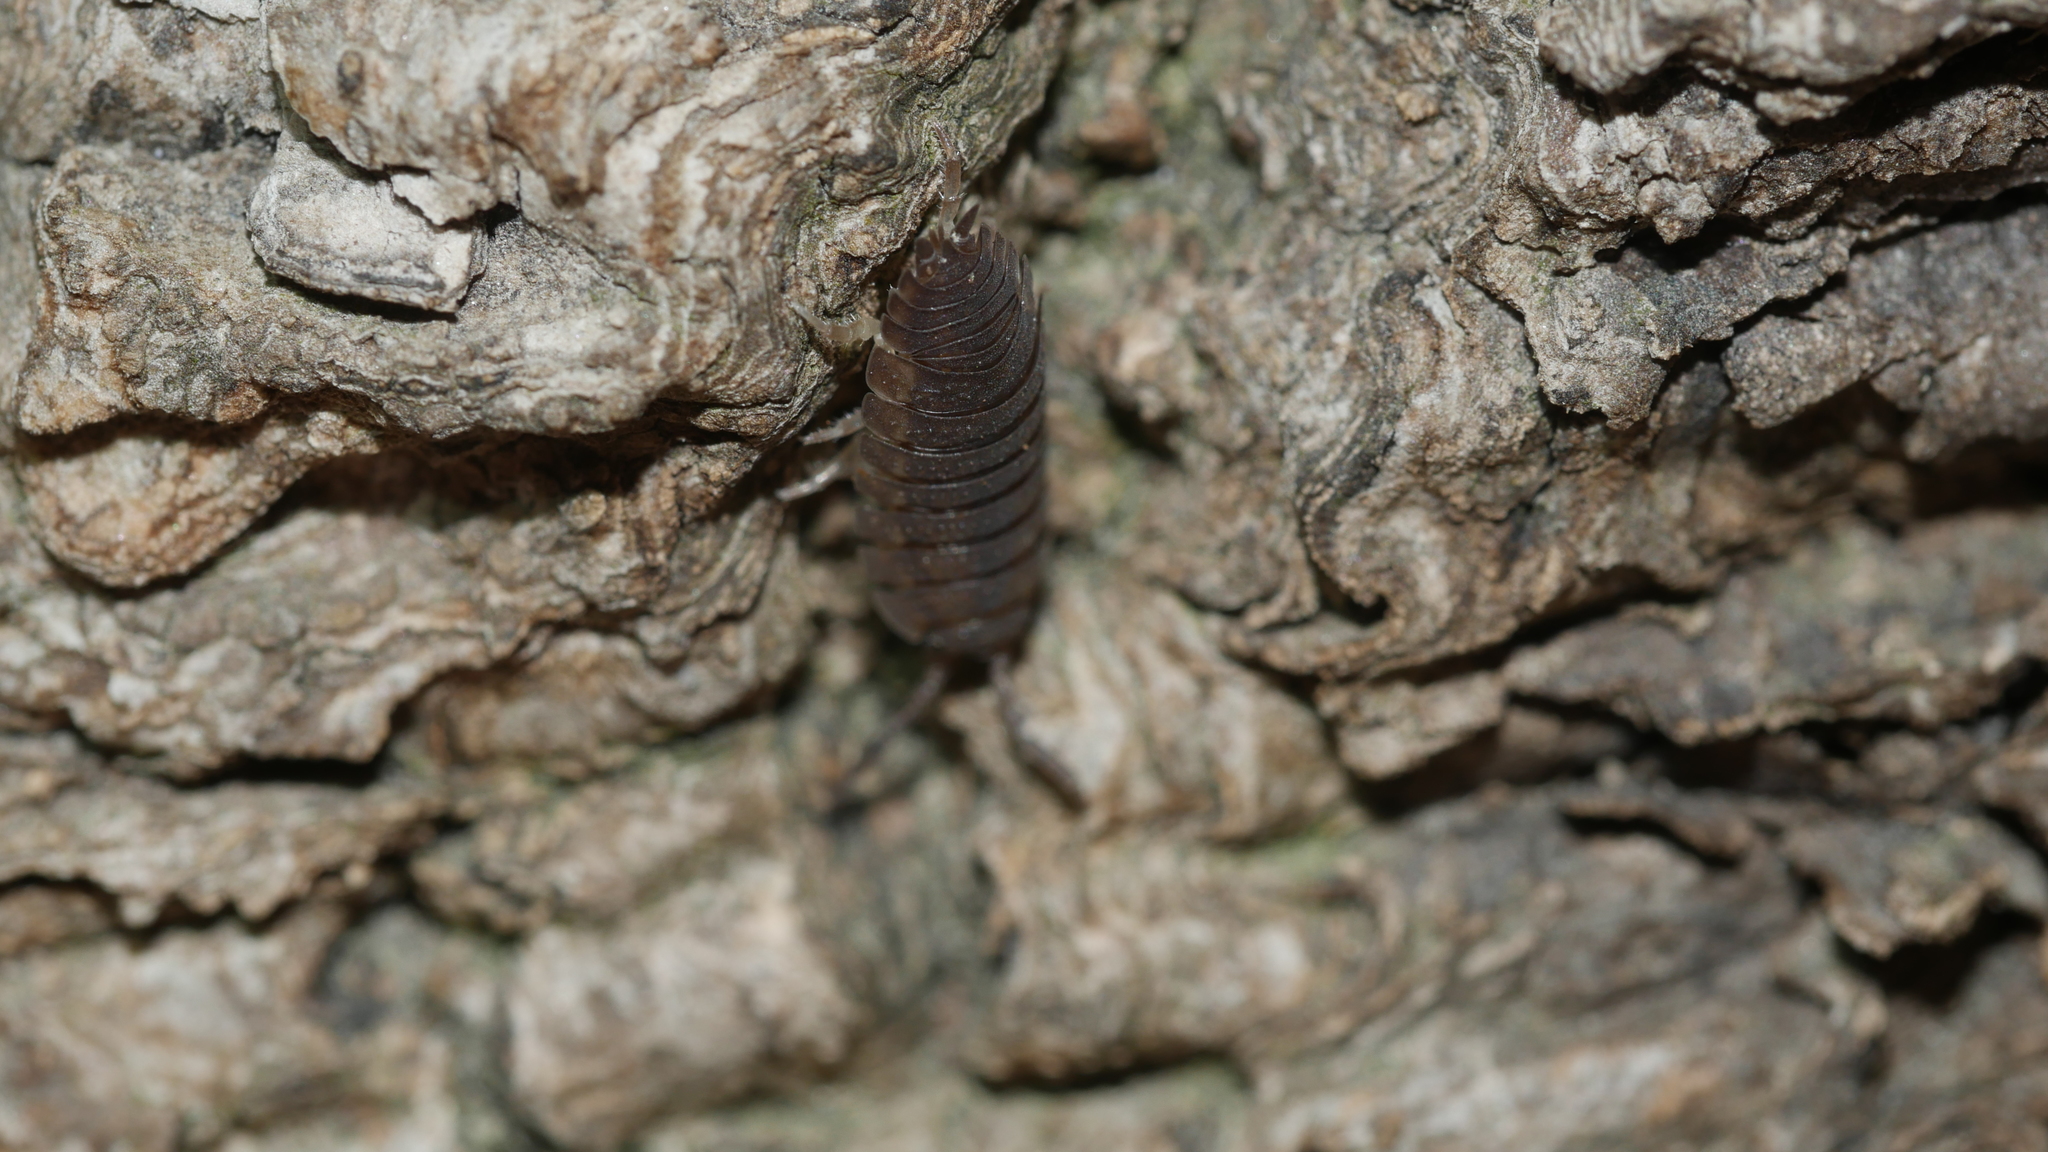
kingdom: Animalia
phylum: Arthropoda
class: Malacostraca
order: Isopoda
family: Porcellionidae
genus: Porcellio
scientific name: Porcellio scaber
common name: Common rough woodlouse
